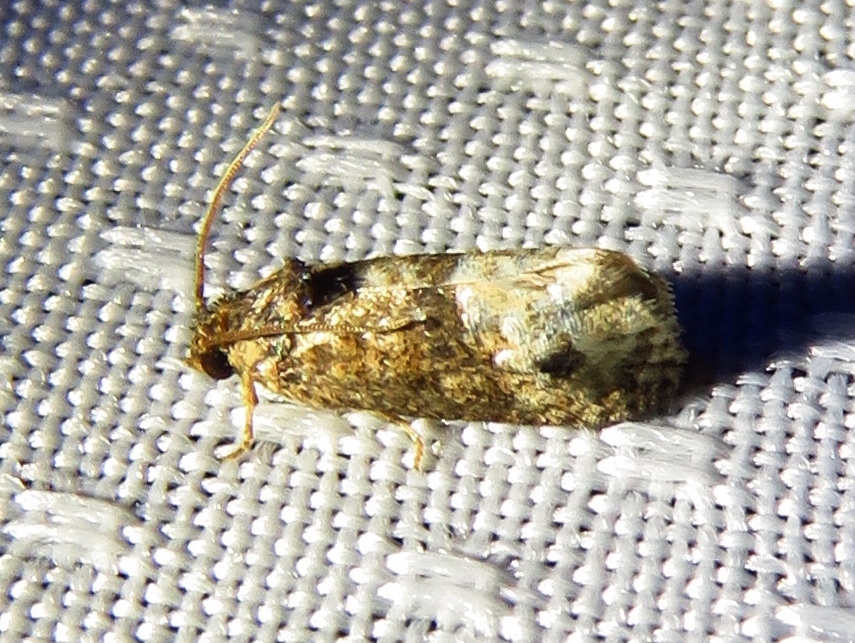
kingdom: Animalia
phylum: Arthropoda
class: Insecta
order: Lepidoptera
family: Tortricidae
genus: Ecdytolopha
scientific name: Ecdytolopha mana
